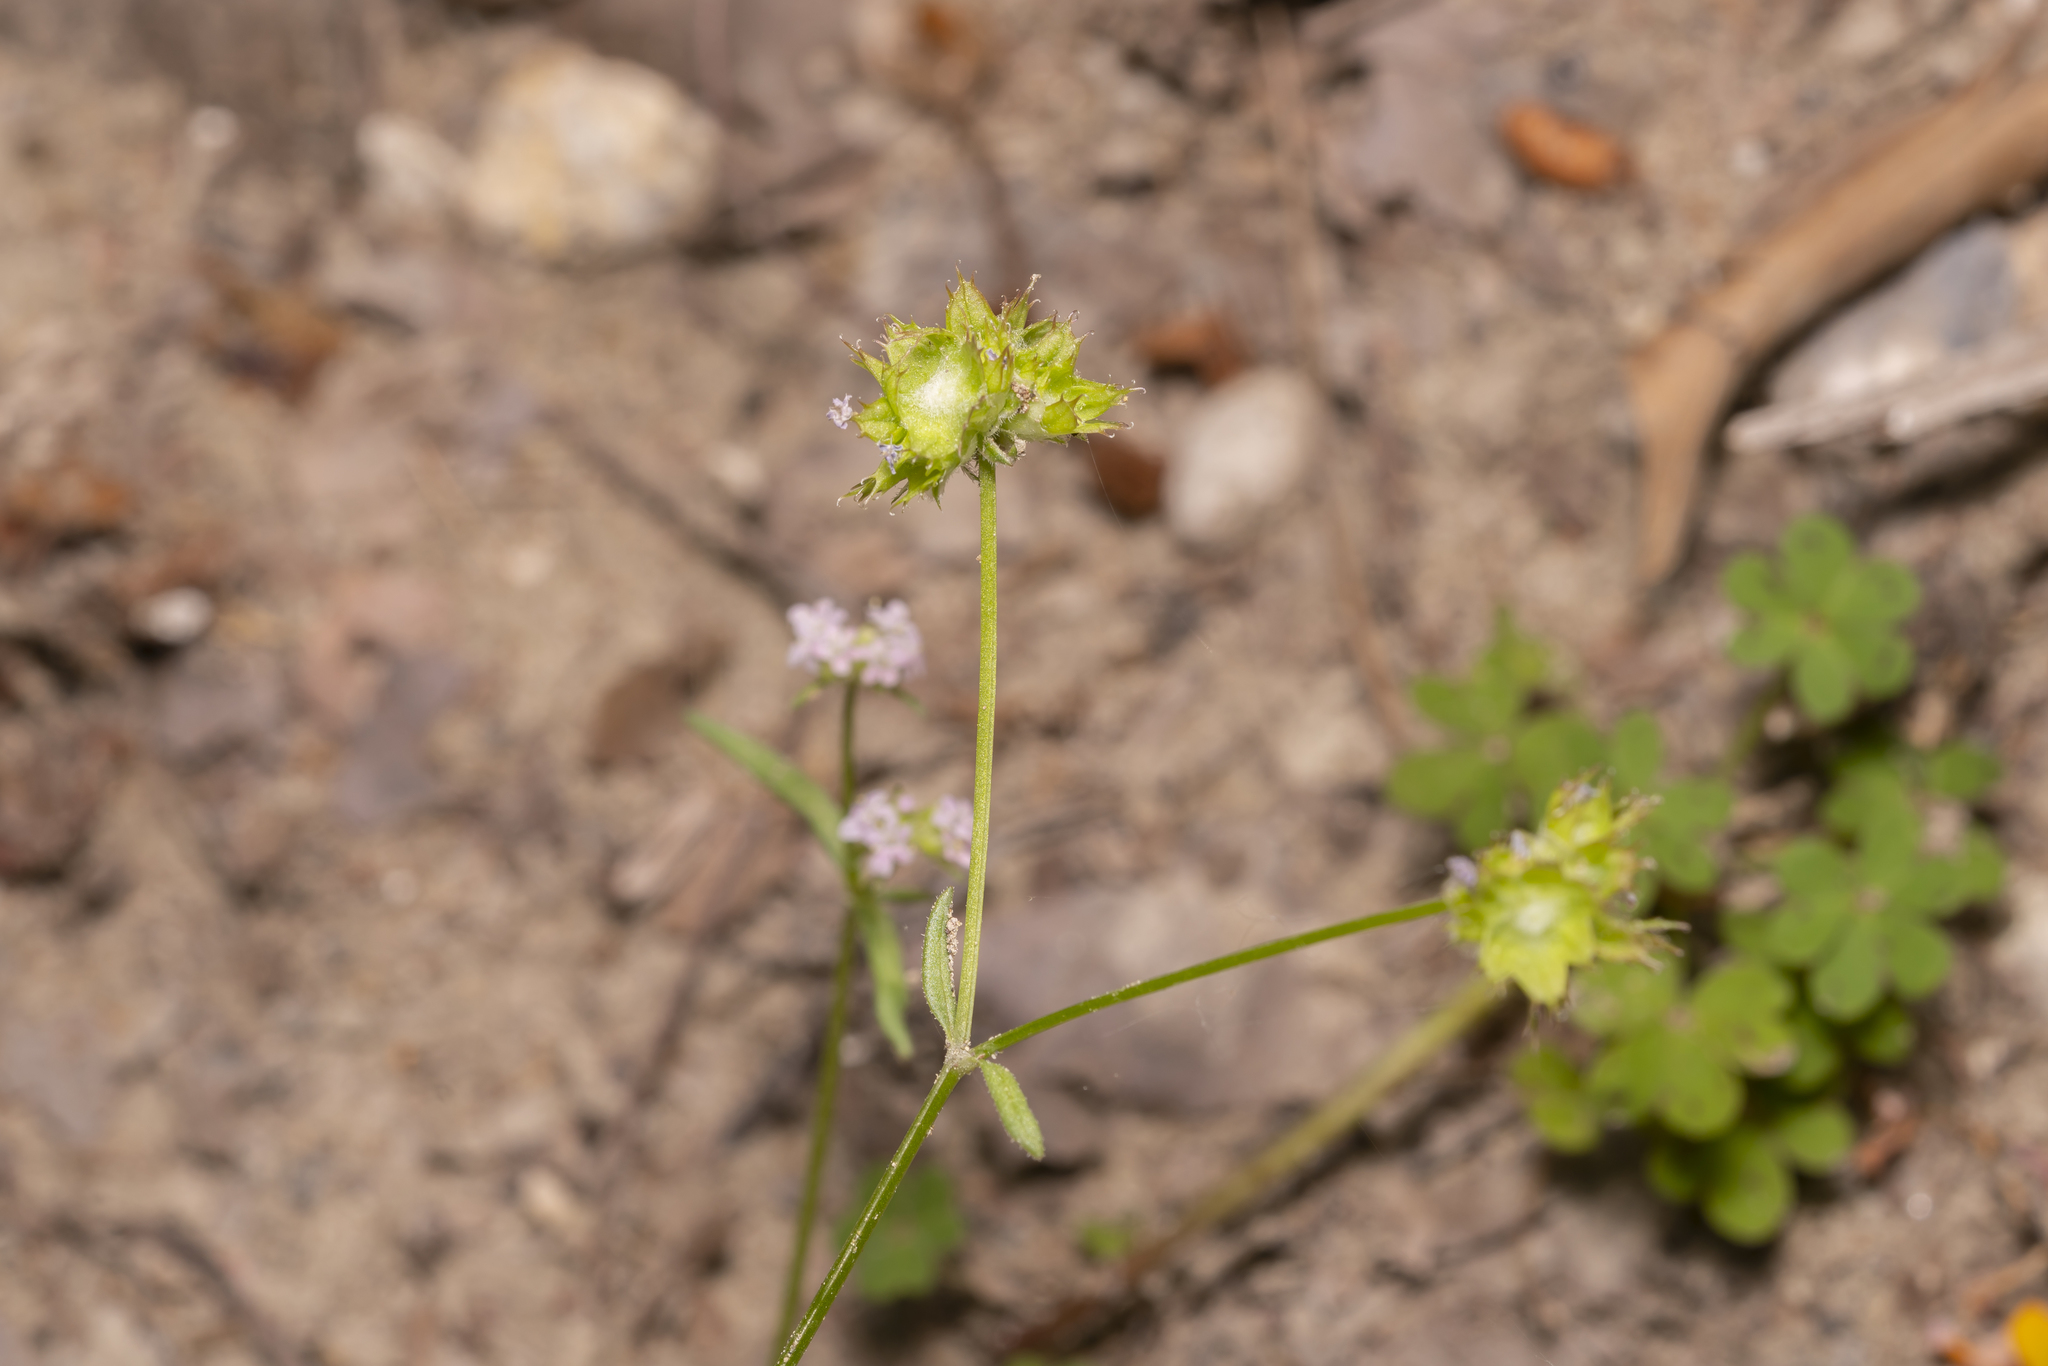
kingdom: Plantae
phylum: Tracheophyta
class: Magnoliopsida
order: Dipsacales
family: Caprifoliaceae
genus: Valerianella
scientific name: Valerianella obtusiloba
